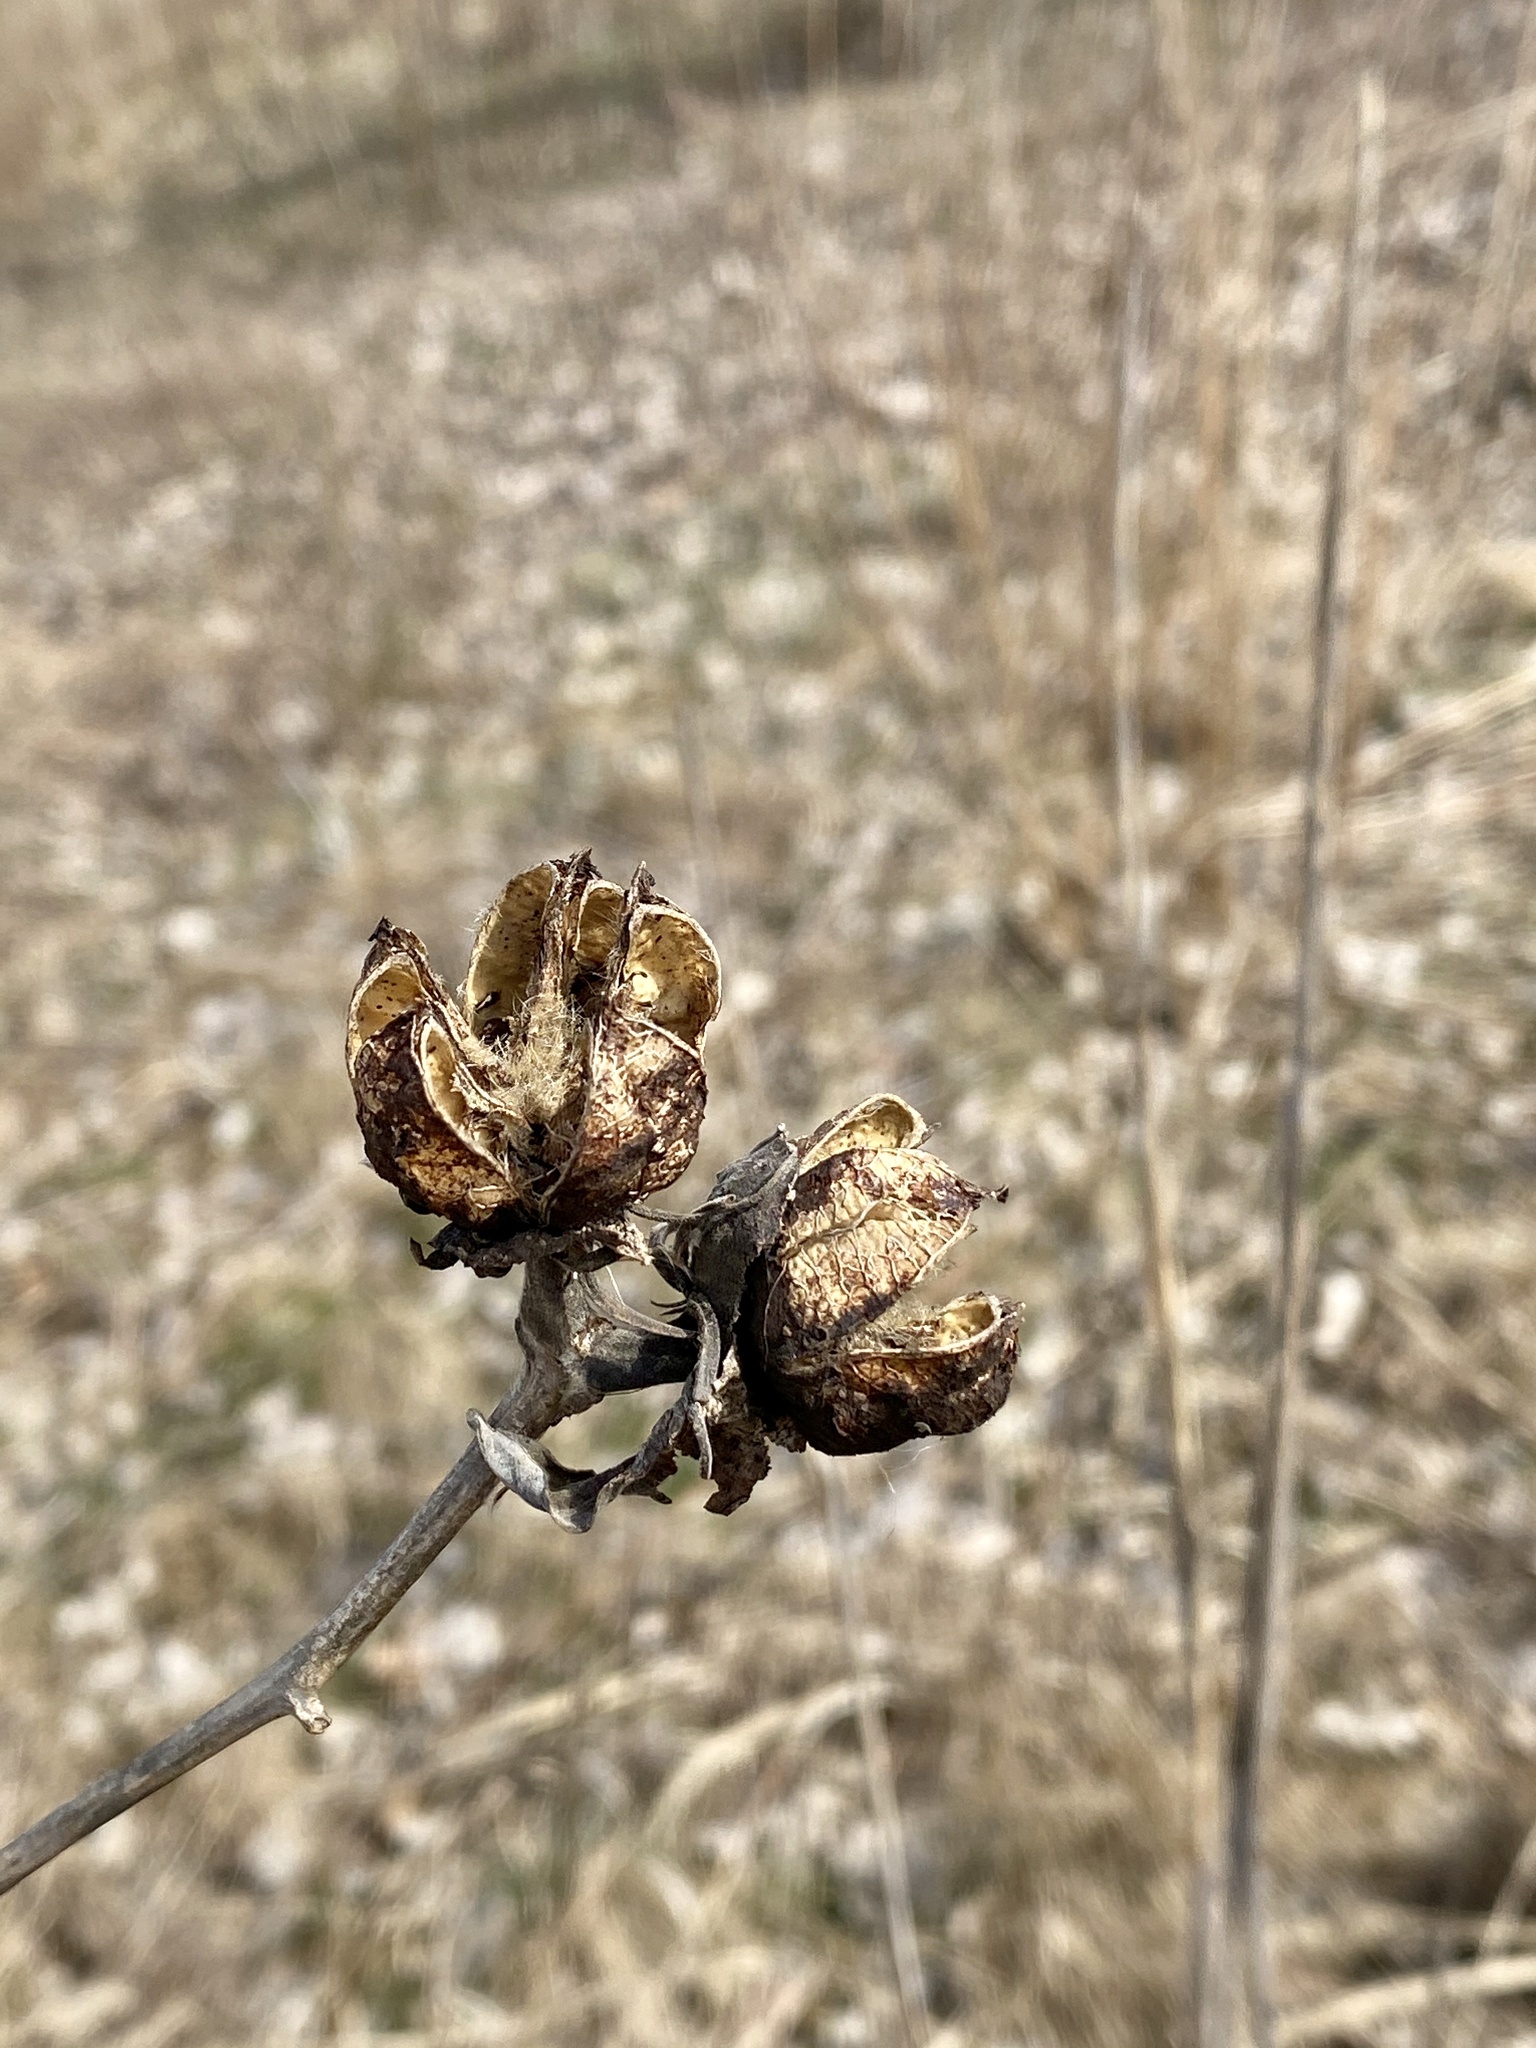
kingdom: Plantae
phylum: Tracheophyta
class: Magnoliopsida
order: Malvales
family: Malvaceae
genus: Hibiscus
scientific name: Hibiscus moscheutos
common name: Common rose-mallow
